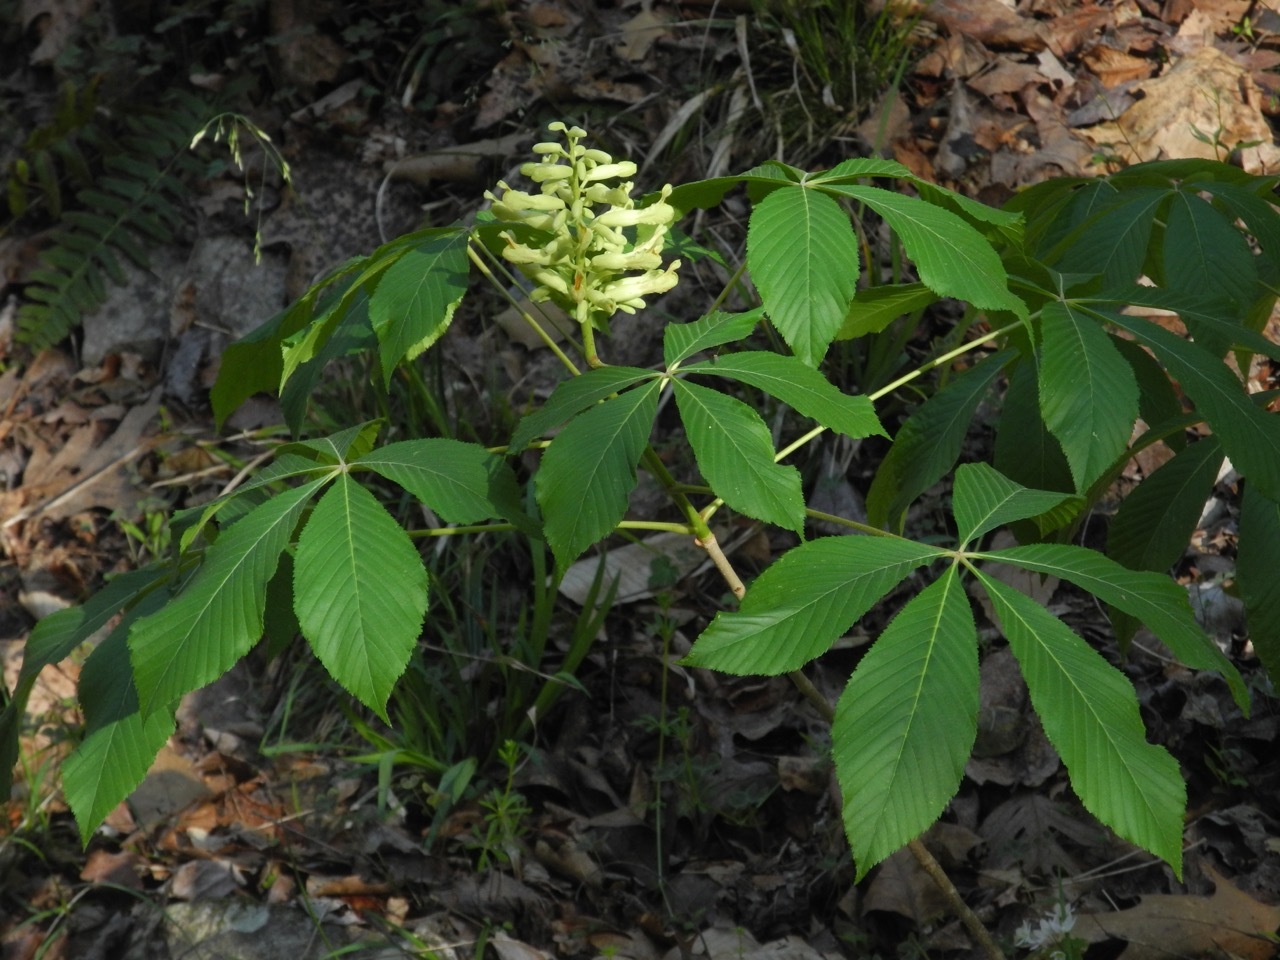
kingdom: Plantae
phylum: Tracheophyta
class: Magnoliopsida
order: Sapindales
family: Sapindaceae
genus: Aesculus
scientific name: Aesculus sylvatica
